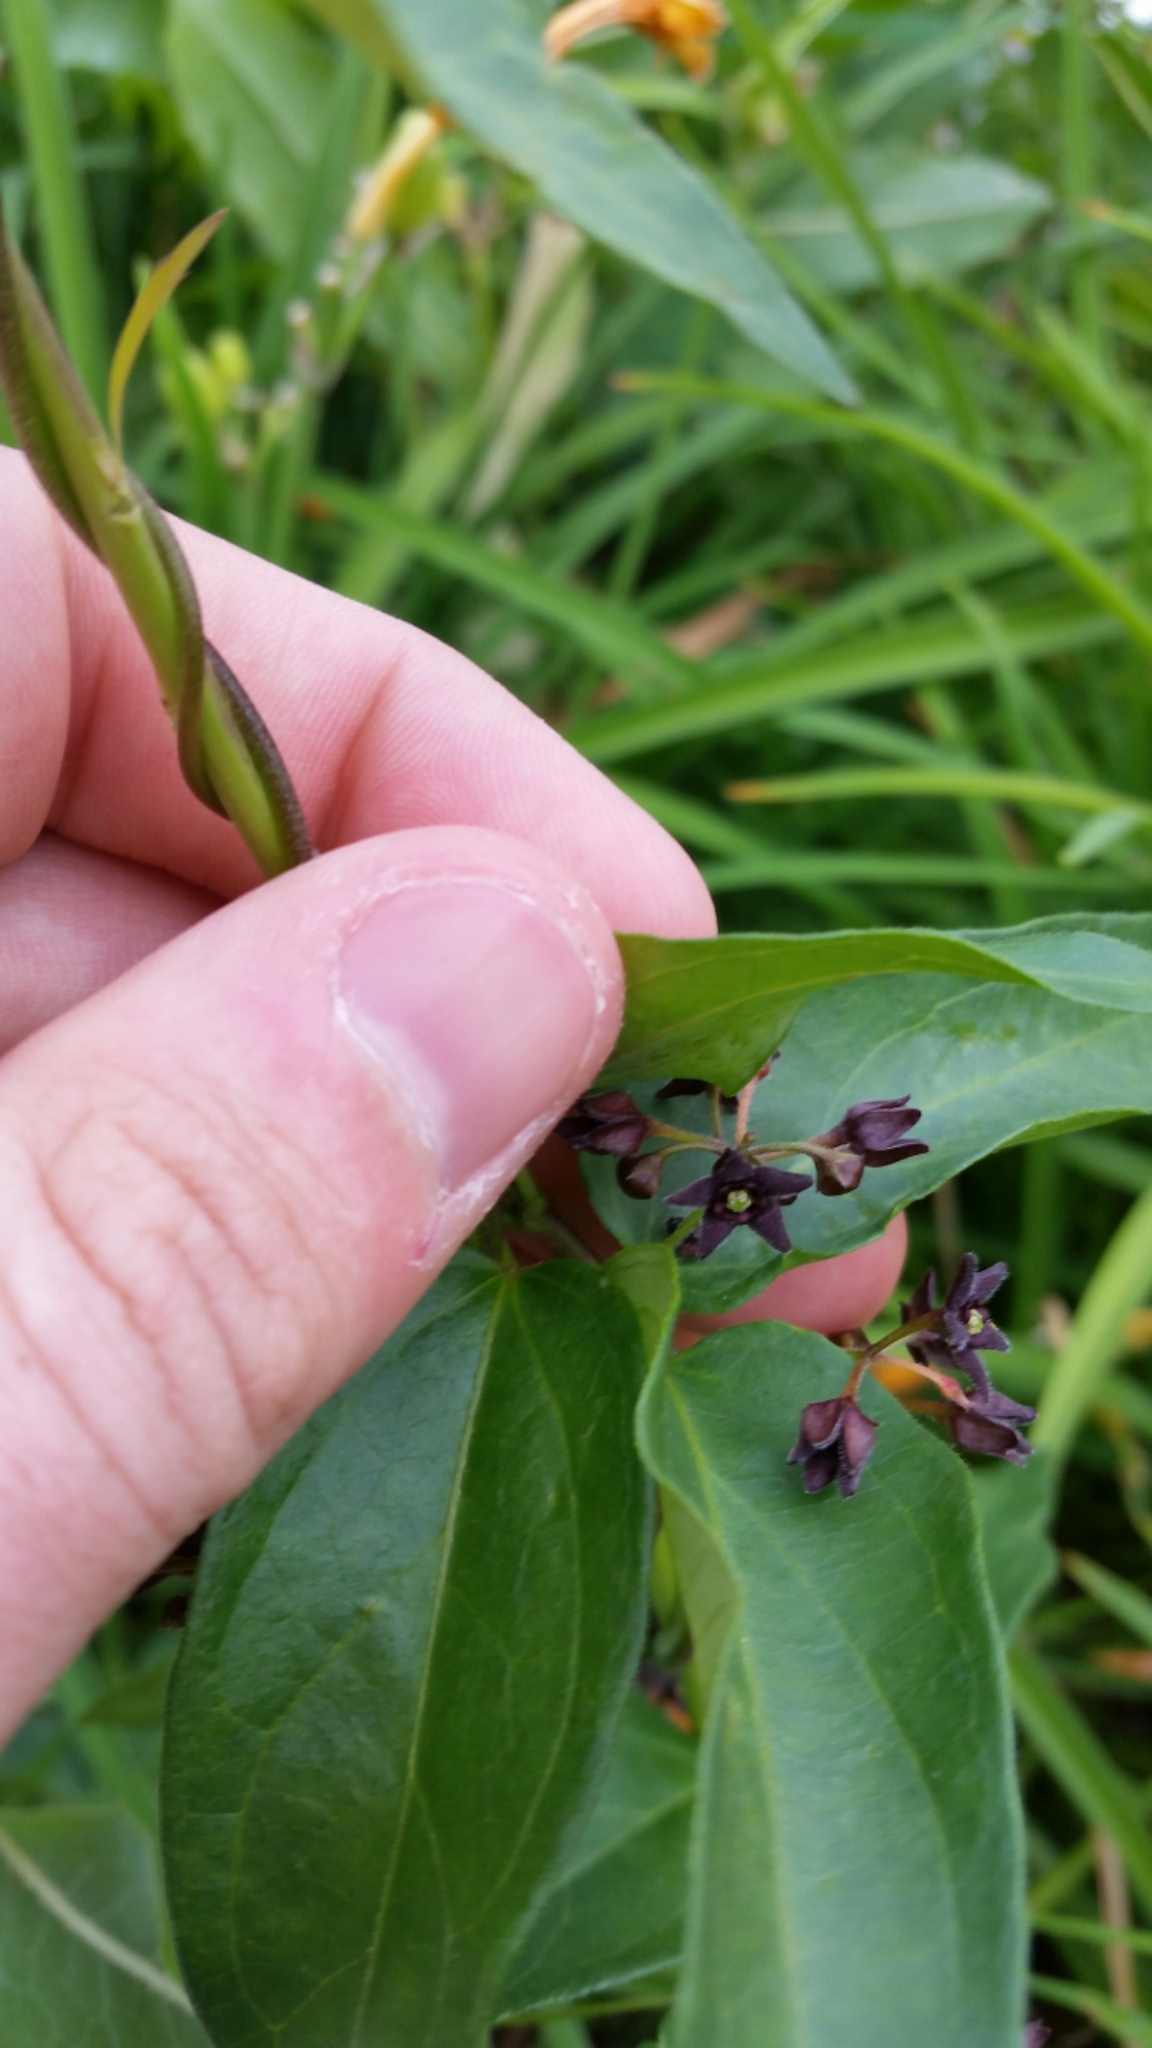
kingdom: Plantae
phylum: Tracheophyta
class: Magnoliopsida
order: Gentianales
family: Apocynaceae
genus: Vincetoxicum
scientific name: Vincetoxicum nigrum
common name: Black swallow-wort
